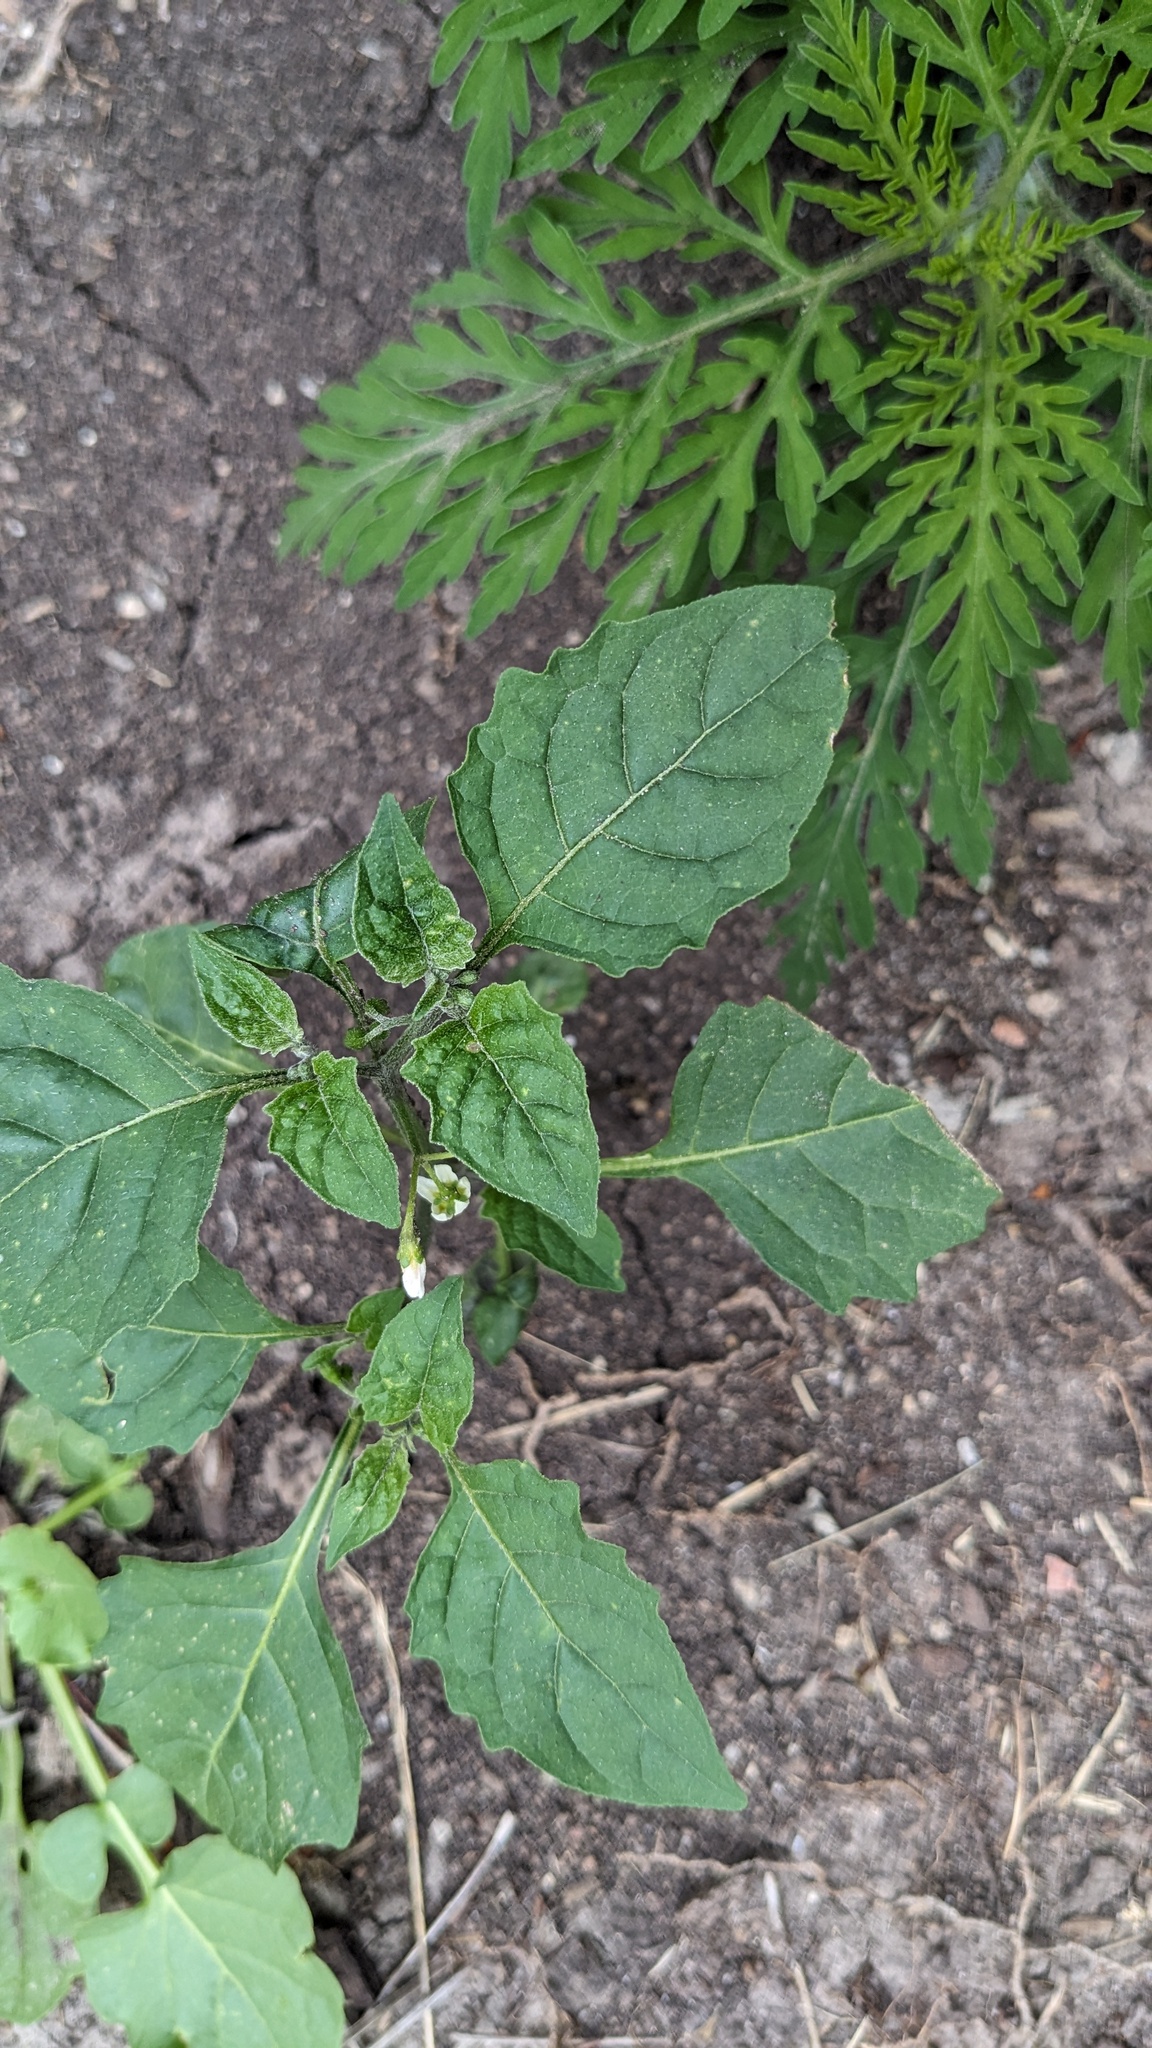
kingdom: Plantae
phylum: Tracheophyta
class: Magnoliopsida
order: Solanales
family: Solanaceae
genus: Solanum
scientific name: Solanum emulans
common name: Eastern black nightshade
